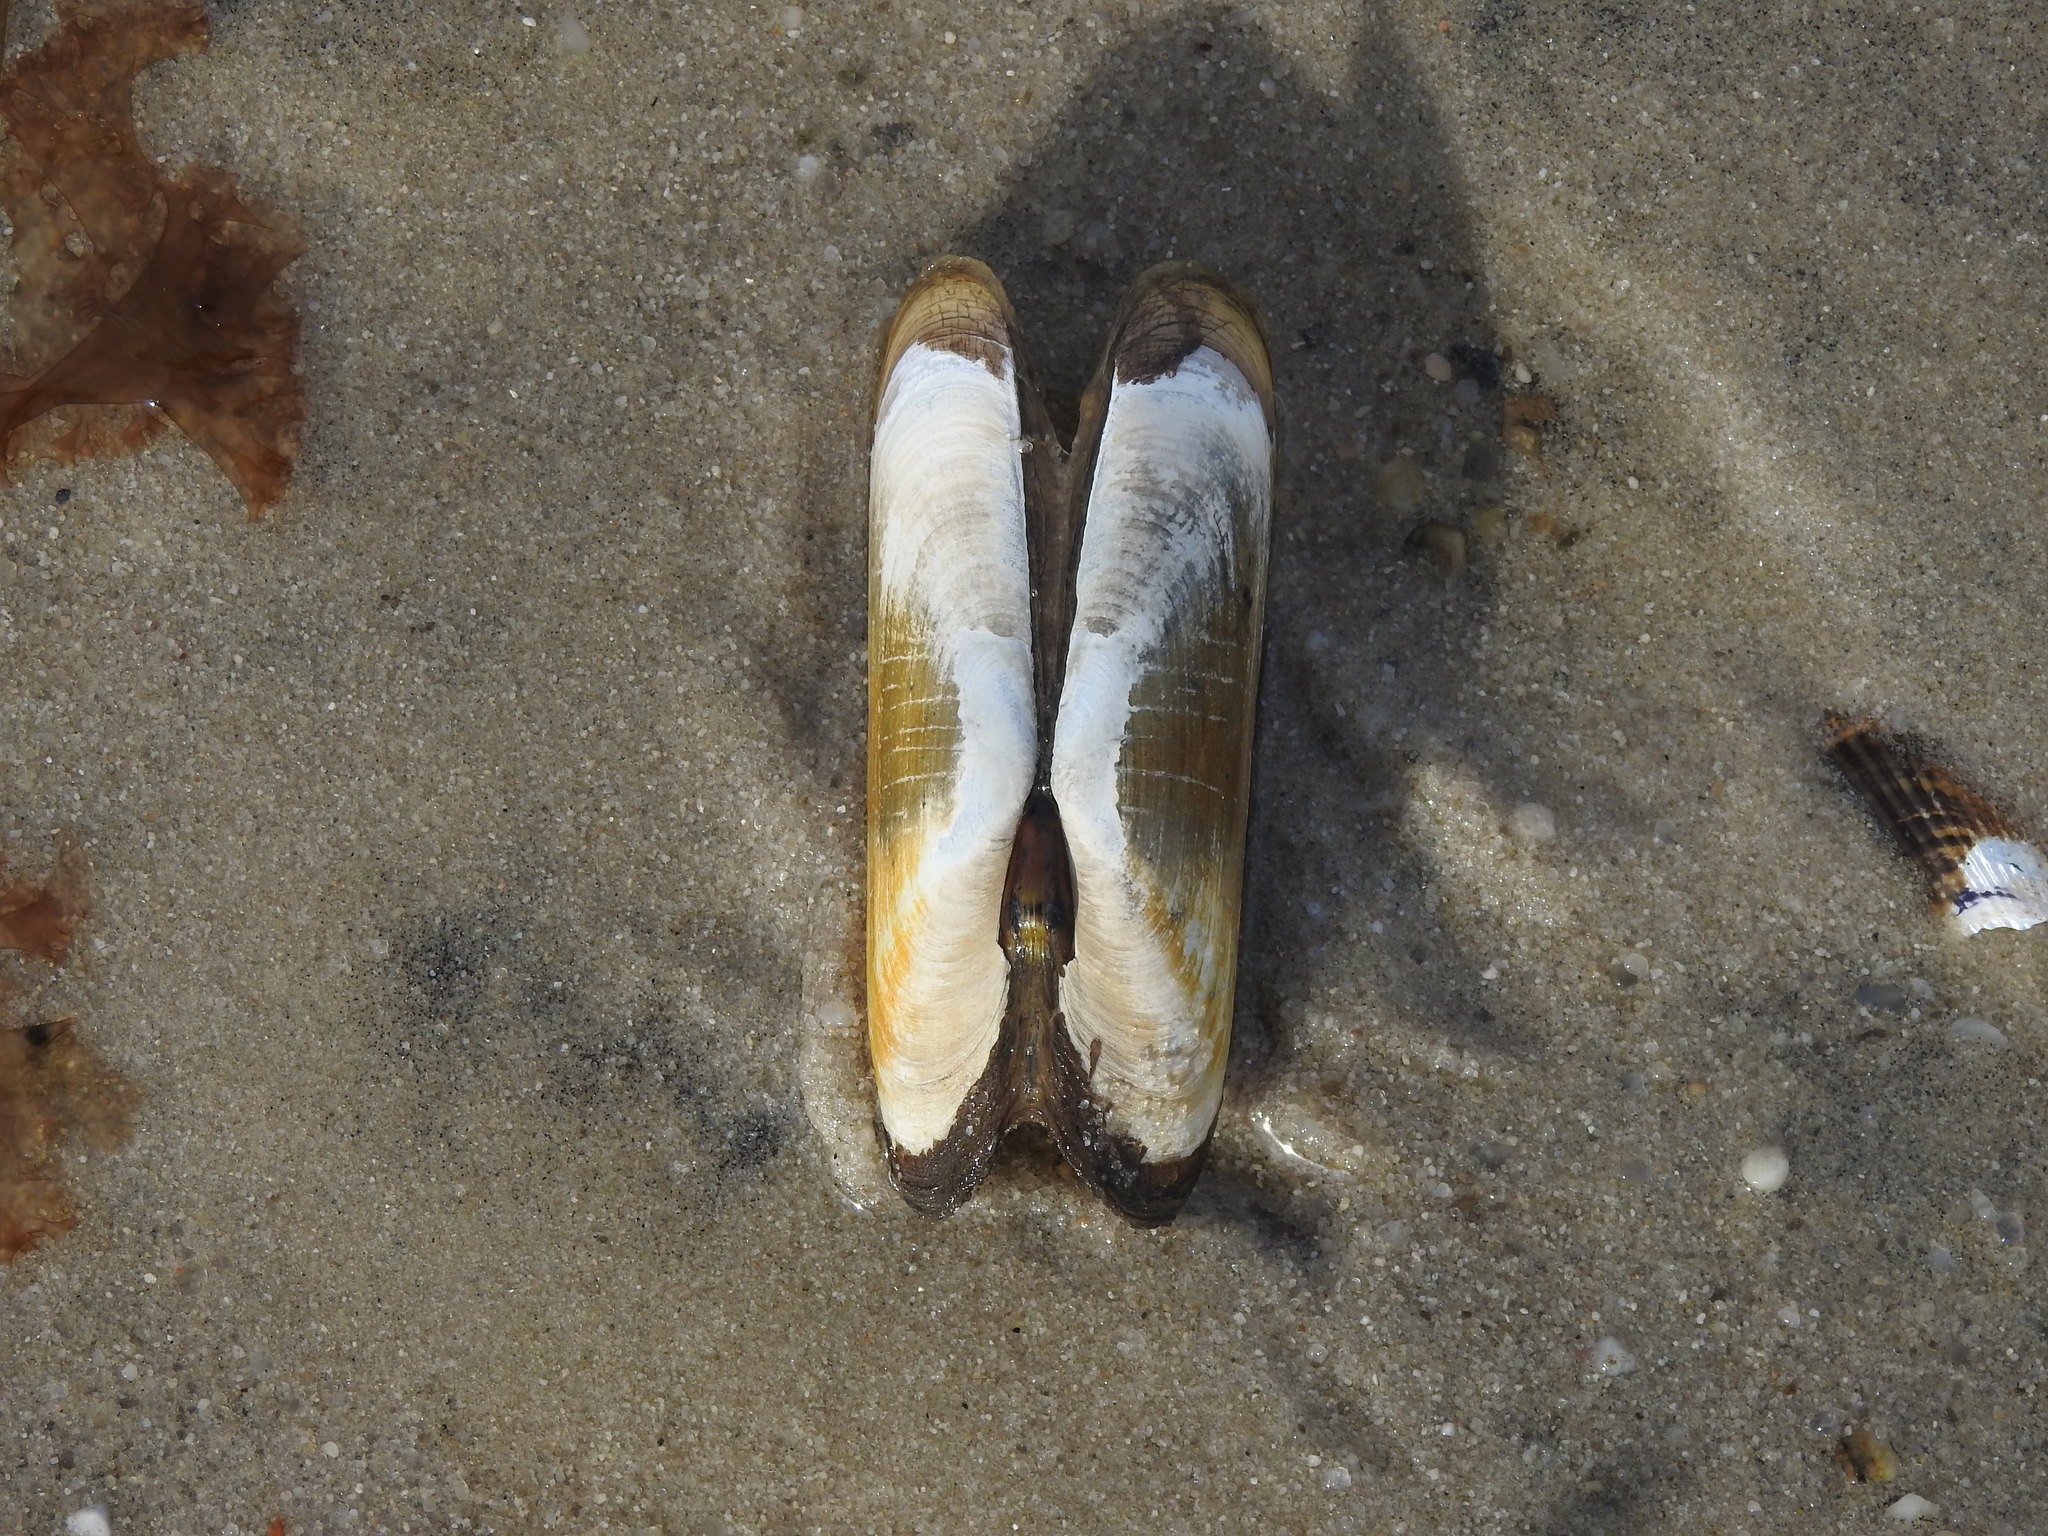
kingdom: Animalia
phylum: Mollusca
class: Bivalvia
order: Cardiida
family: Solecurtidae
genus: Tagelus
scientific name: Tagelus plebeius
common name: Stout tagelus
